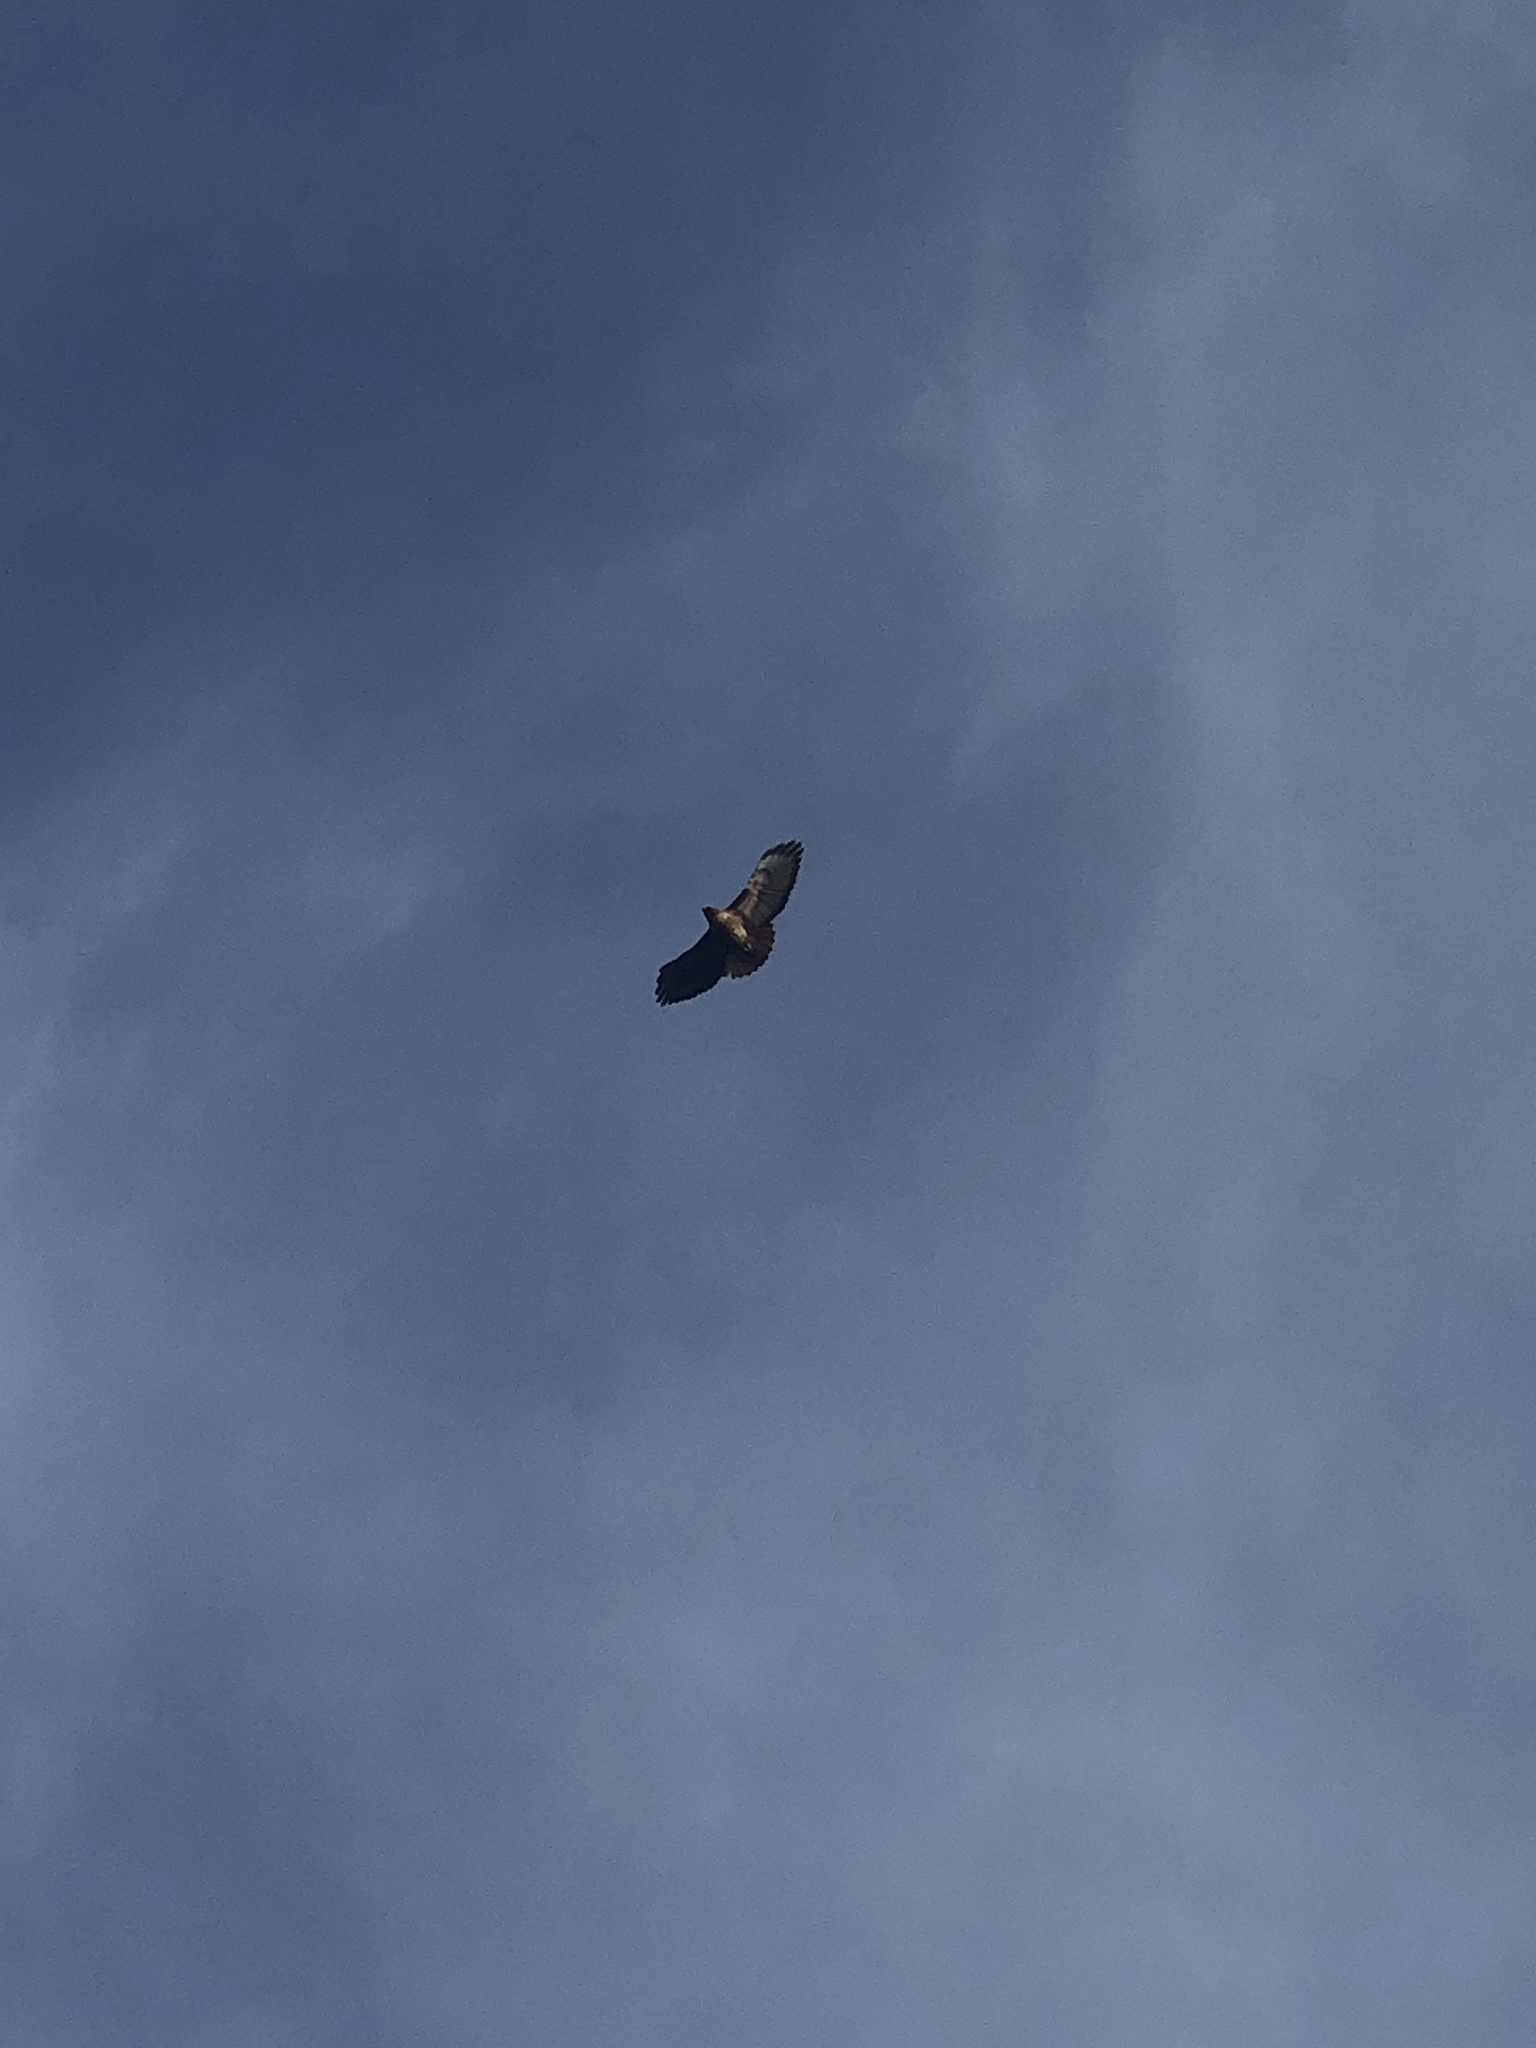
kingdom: Animalia
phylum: Chordata
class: Aves
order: Accipitriformes
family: Accipitridae
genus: Buteo
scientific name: Buteo jamaicensis
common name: Red-tailed hawk
